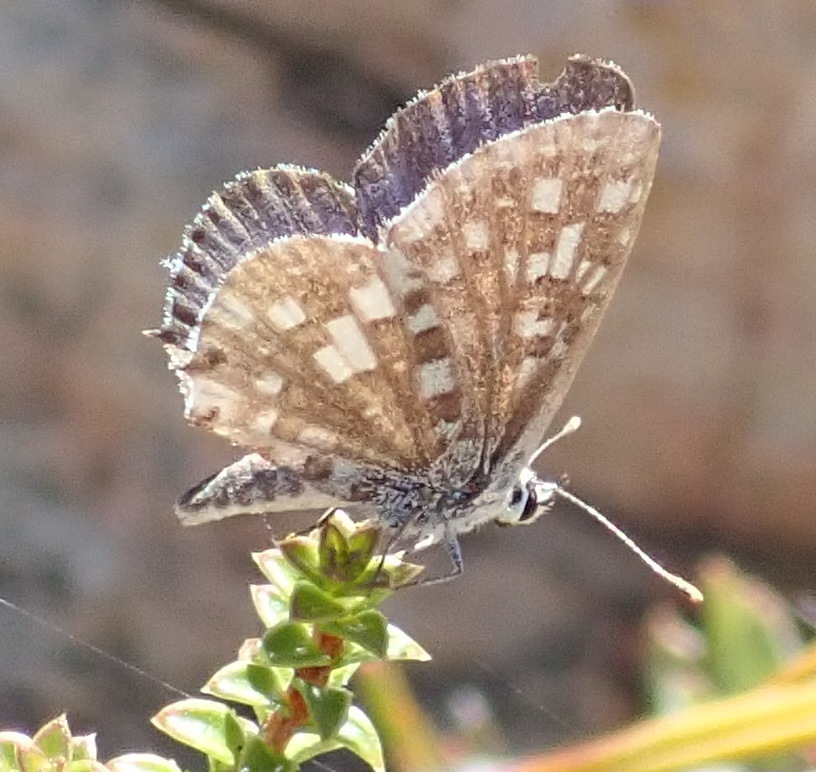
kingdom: Animalia
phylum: Arthropoda
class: Insecta
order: Lepidoptera
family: Lycaenidae
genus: Tarucus
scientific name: Tarucus thespis
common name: Vivid dotted blue
